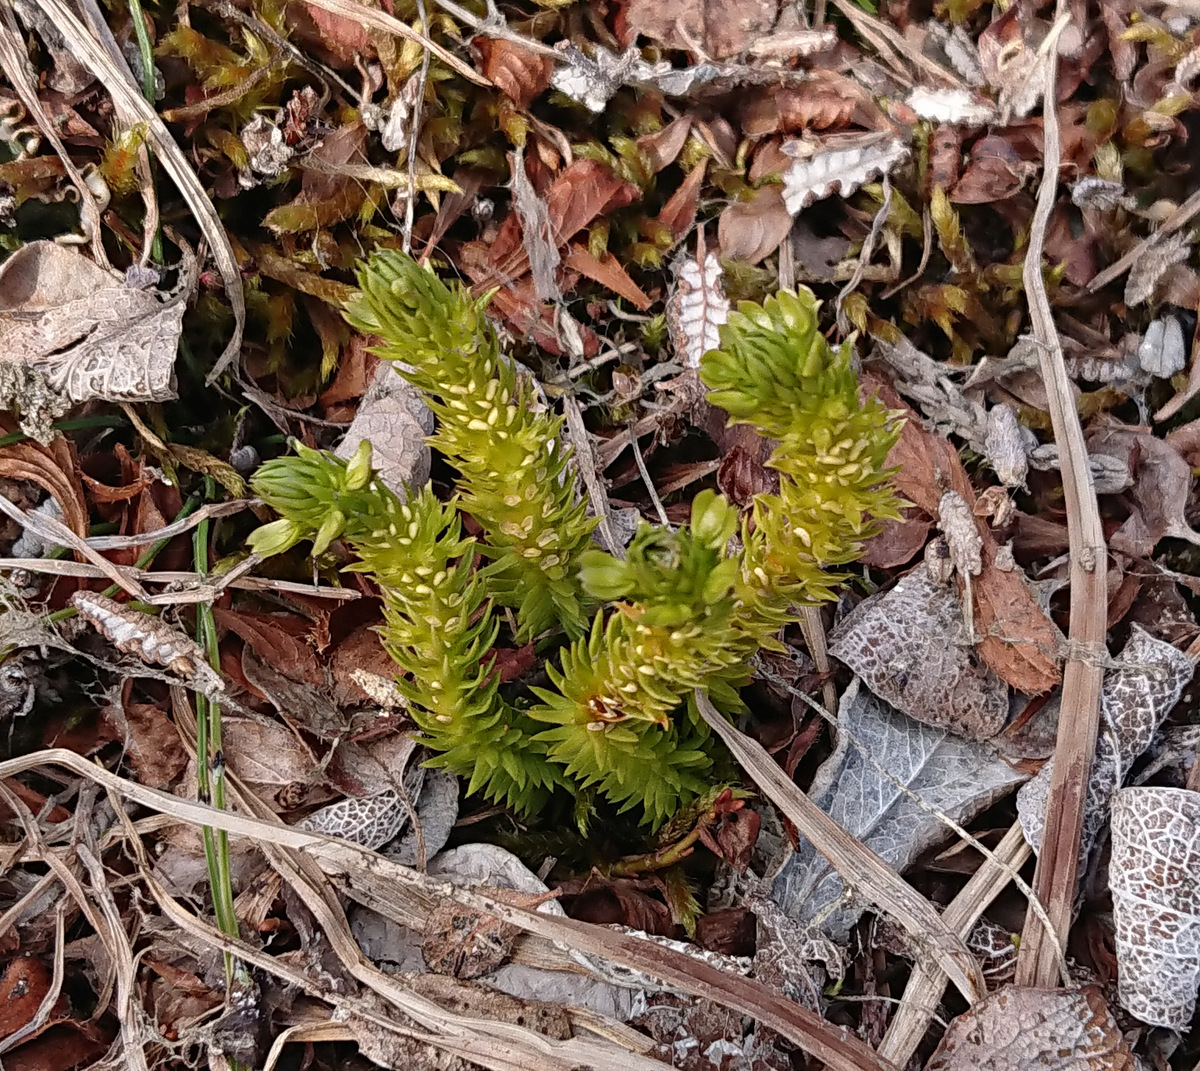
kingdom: Plantae
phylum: Tracheophyta
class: Lycopodiopsida
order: Lycopodiales
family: Lycopodiaceae
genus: Huperzia
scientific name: Huperzia selago
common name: Northern firmoss
